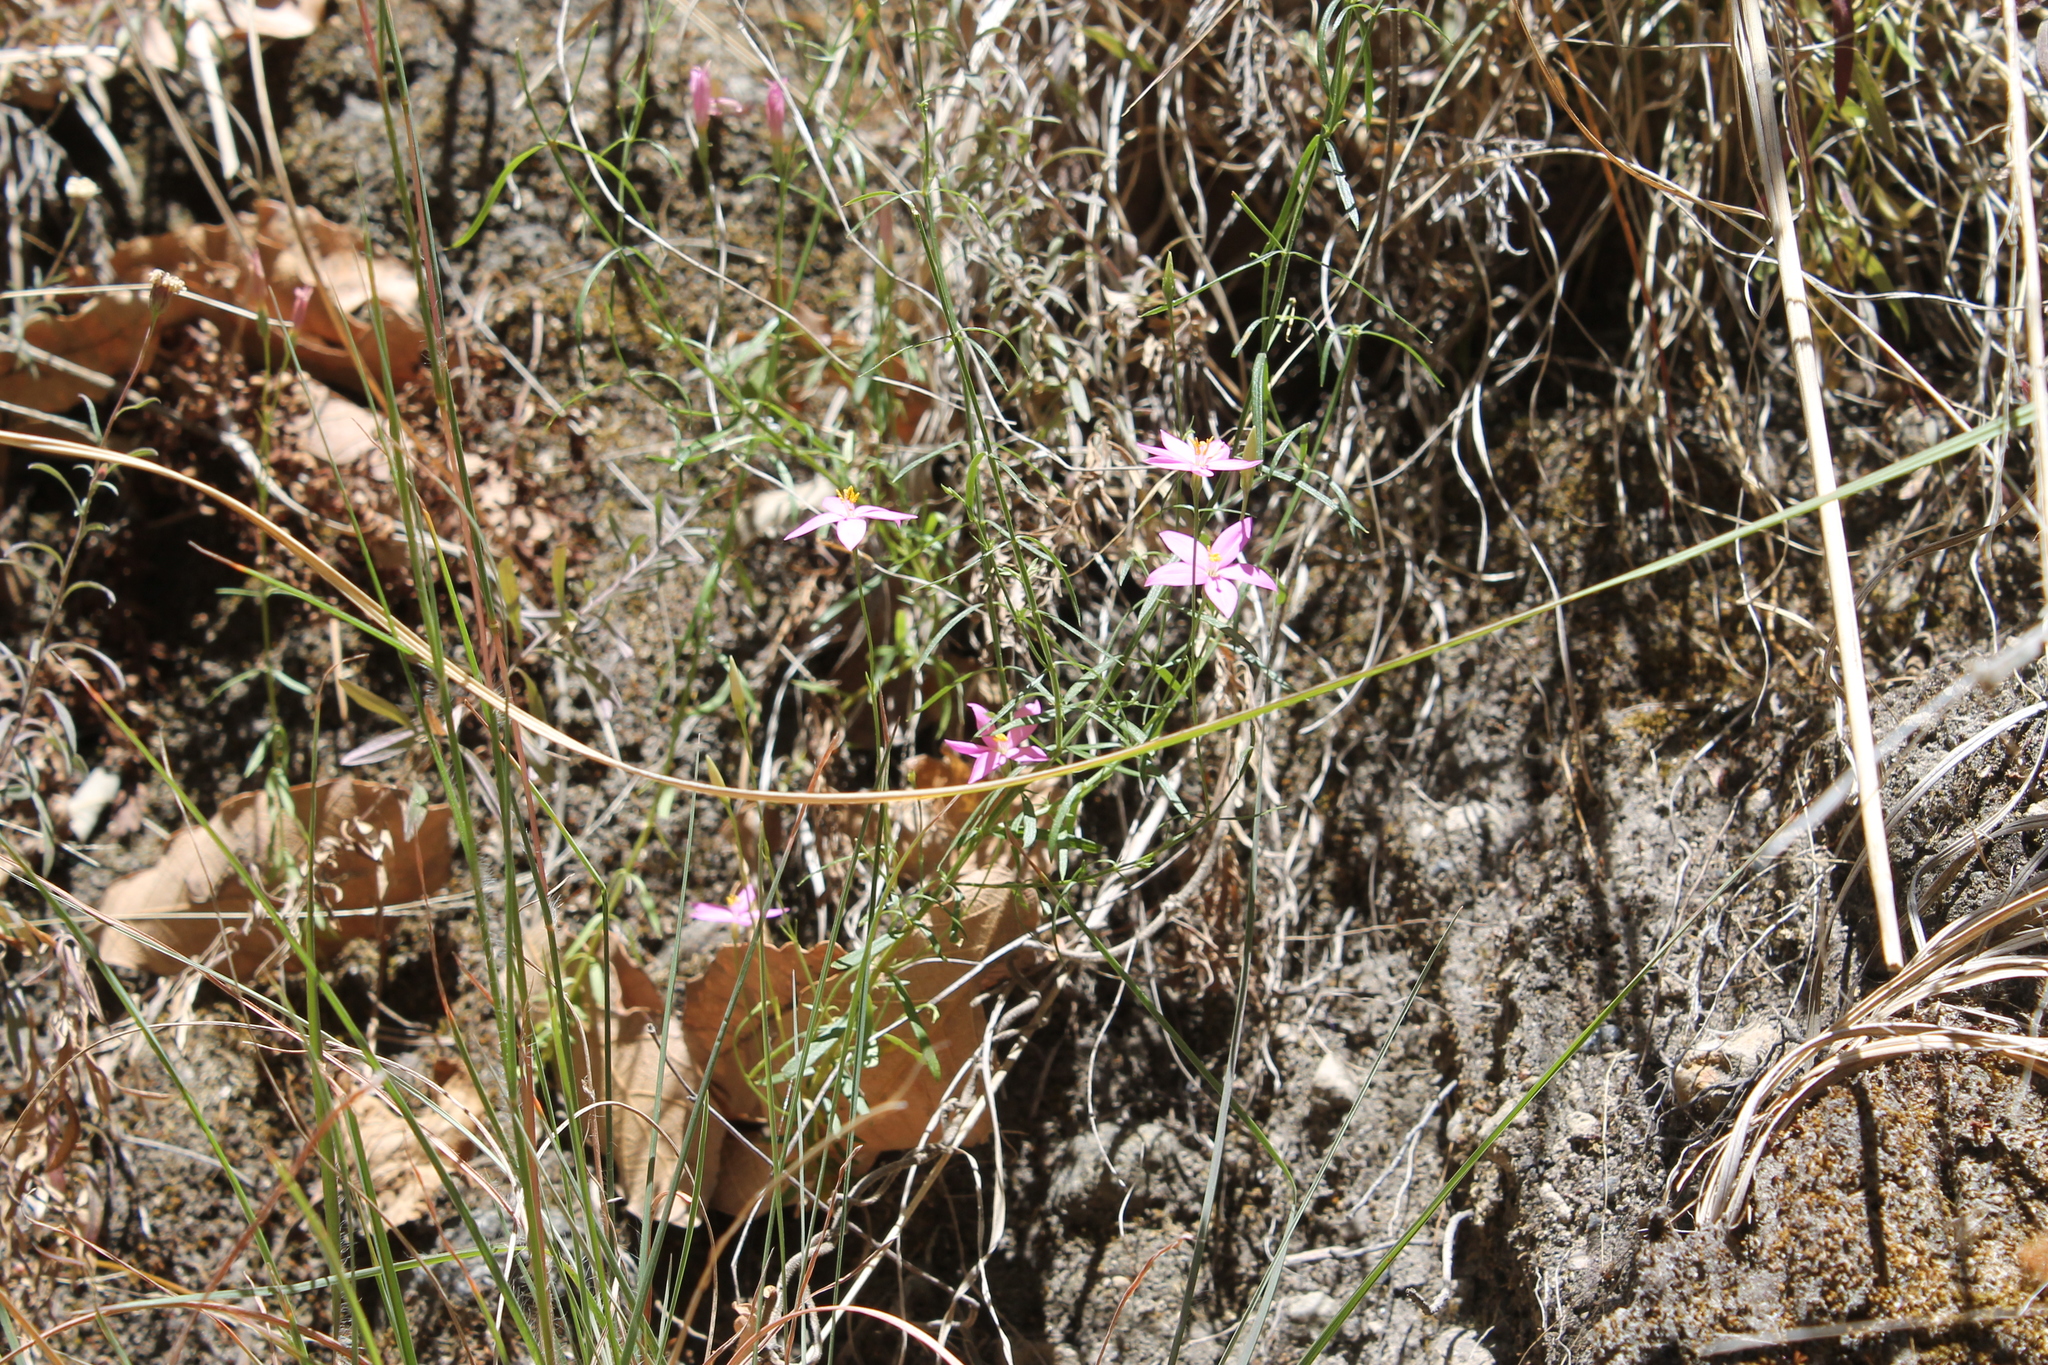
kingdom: Plantae
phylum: Tracheophyta
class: Magnoliopsida
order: Gentianales
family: Gentianaceae
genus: Gyrandra
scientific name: Gyrandra tenuifolia
